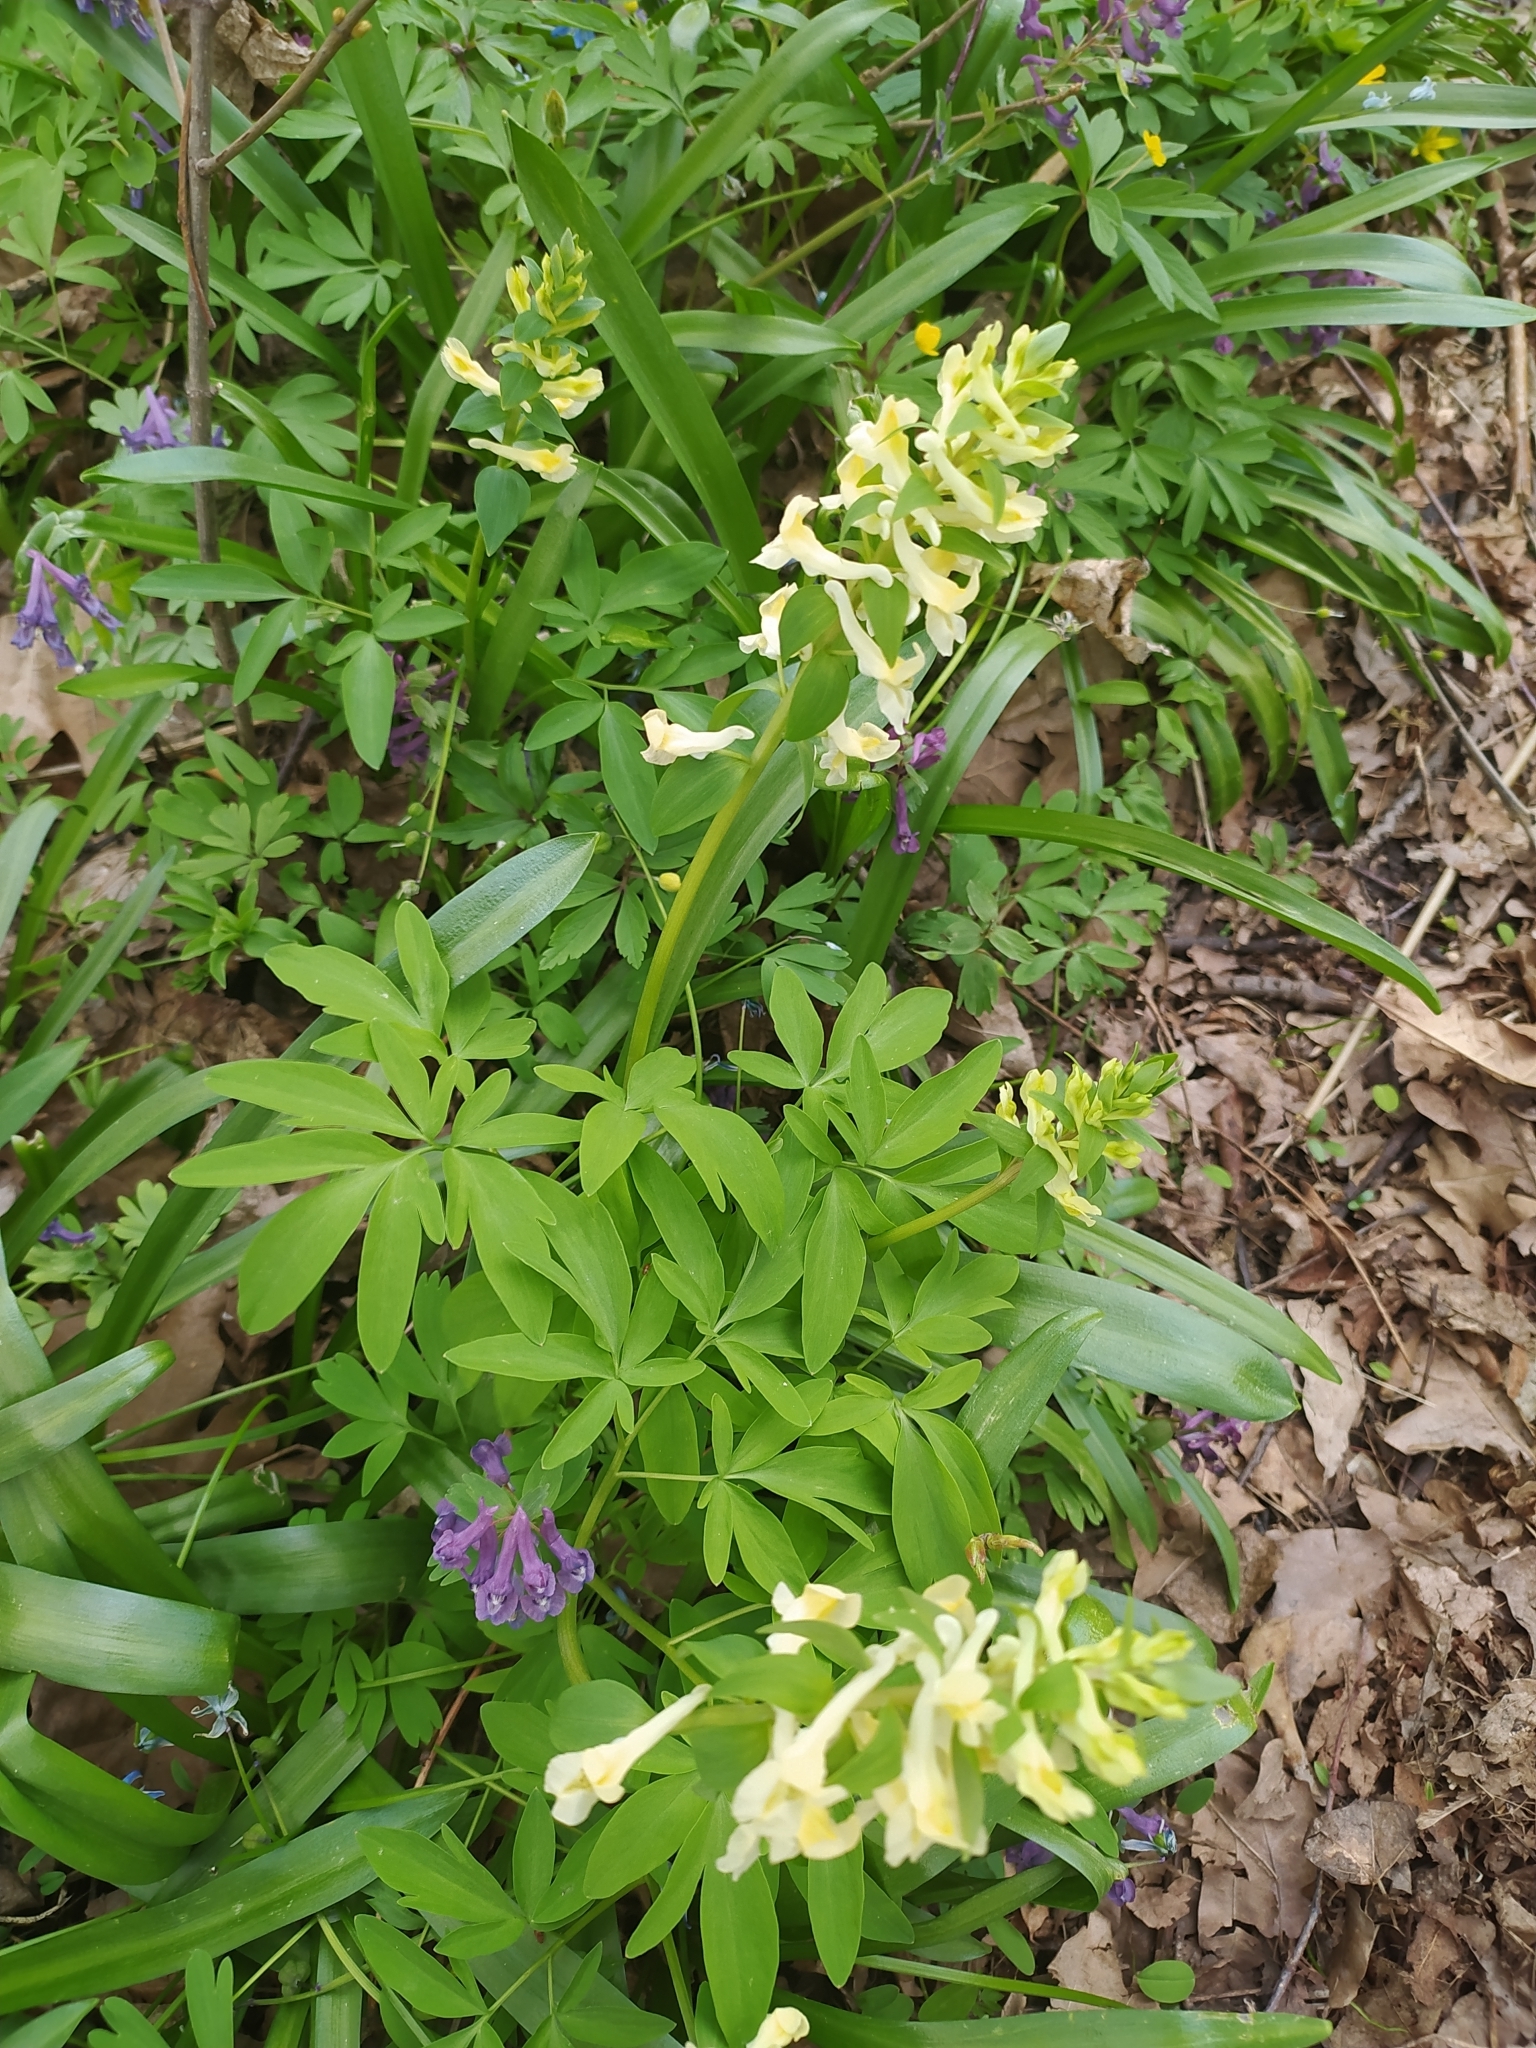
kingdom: Plantae
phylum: Tracheophyta
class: Magnoliopsida
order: Ranunculales
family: Papaveraceae
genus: Corydalis
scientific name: Corydalis cava
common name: Hollowroot
